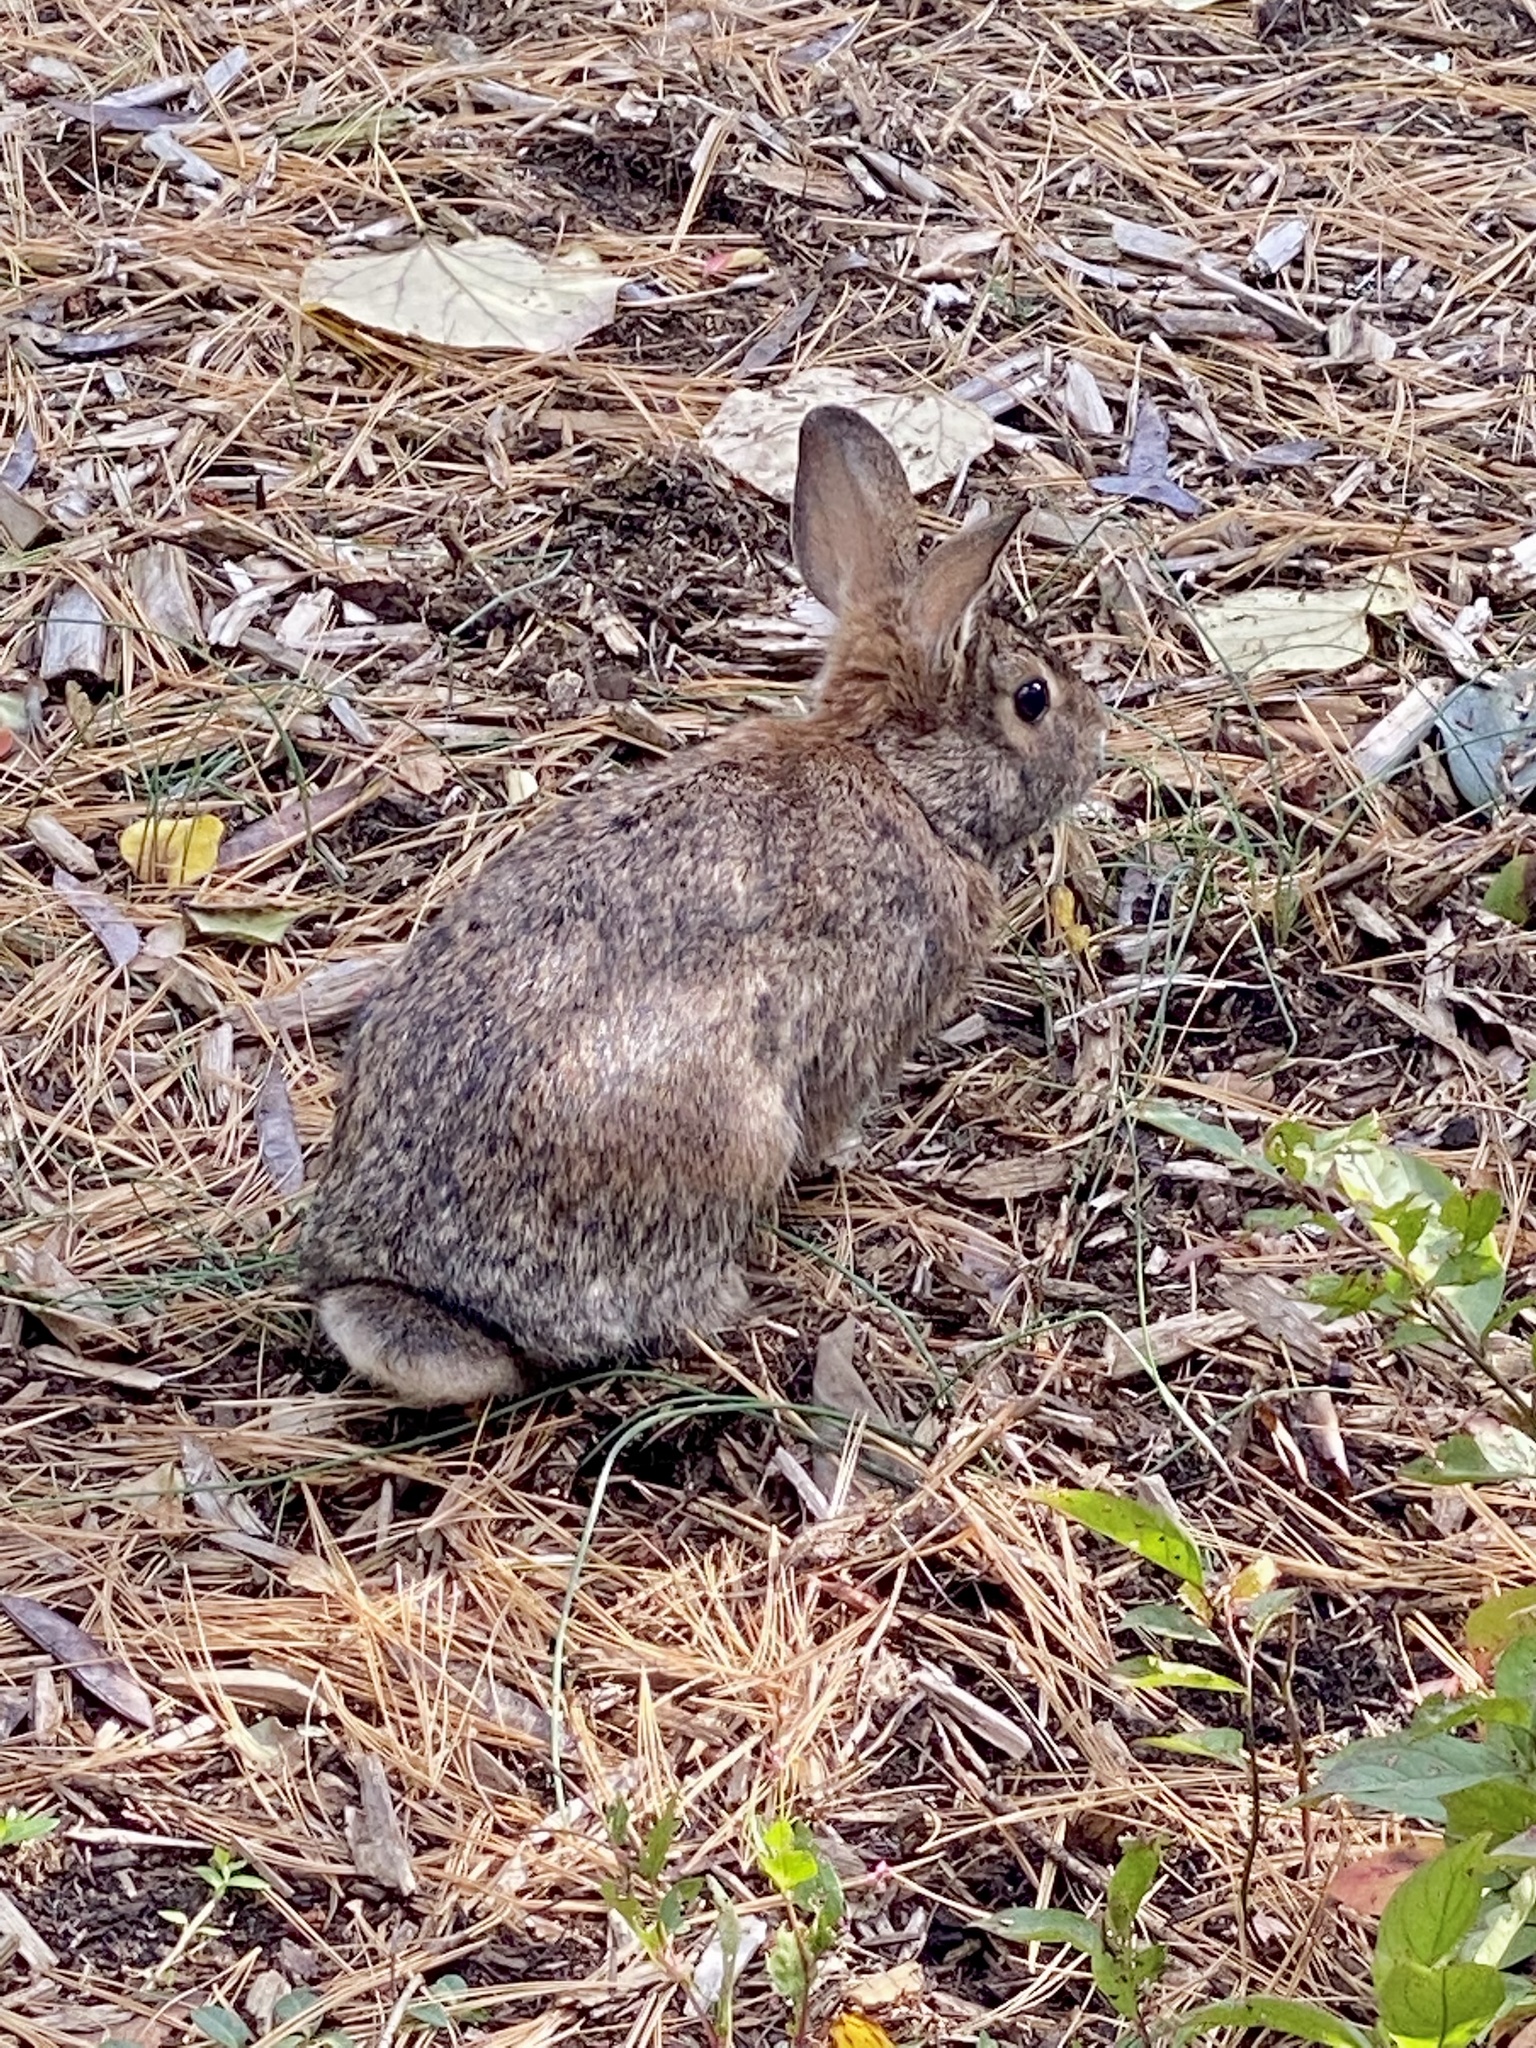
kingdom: Animalia
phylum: Chordata
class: Mammalia
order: Lagomorpha
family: Leporidae
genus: Sylvilagus
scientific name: Sylvilagus floridanus
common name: Eastern cottontail
